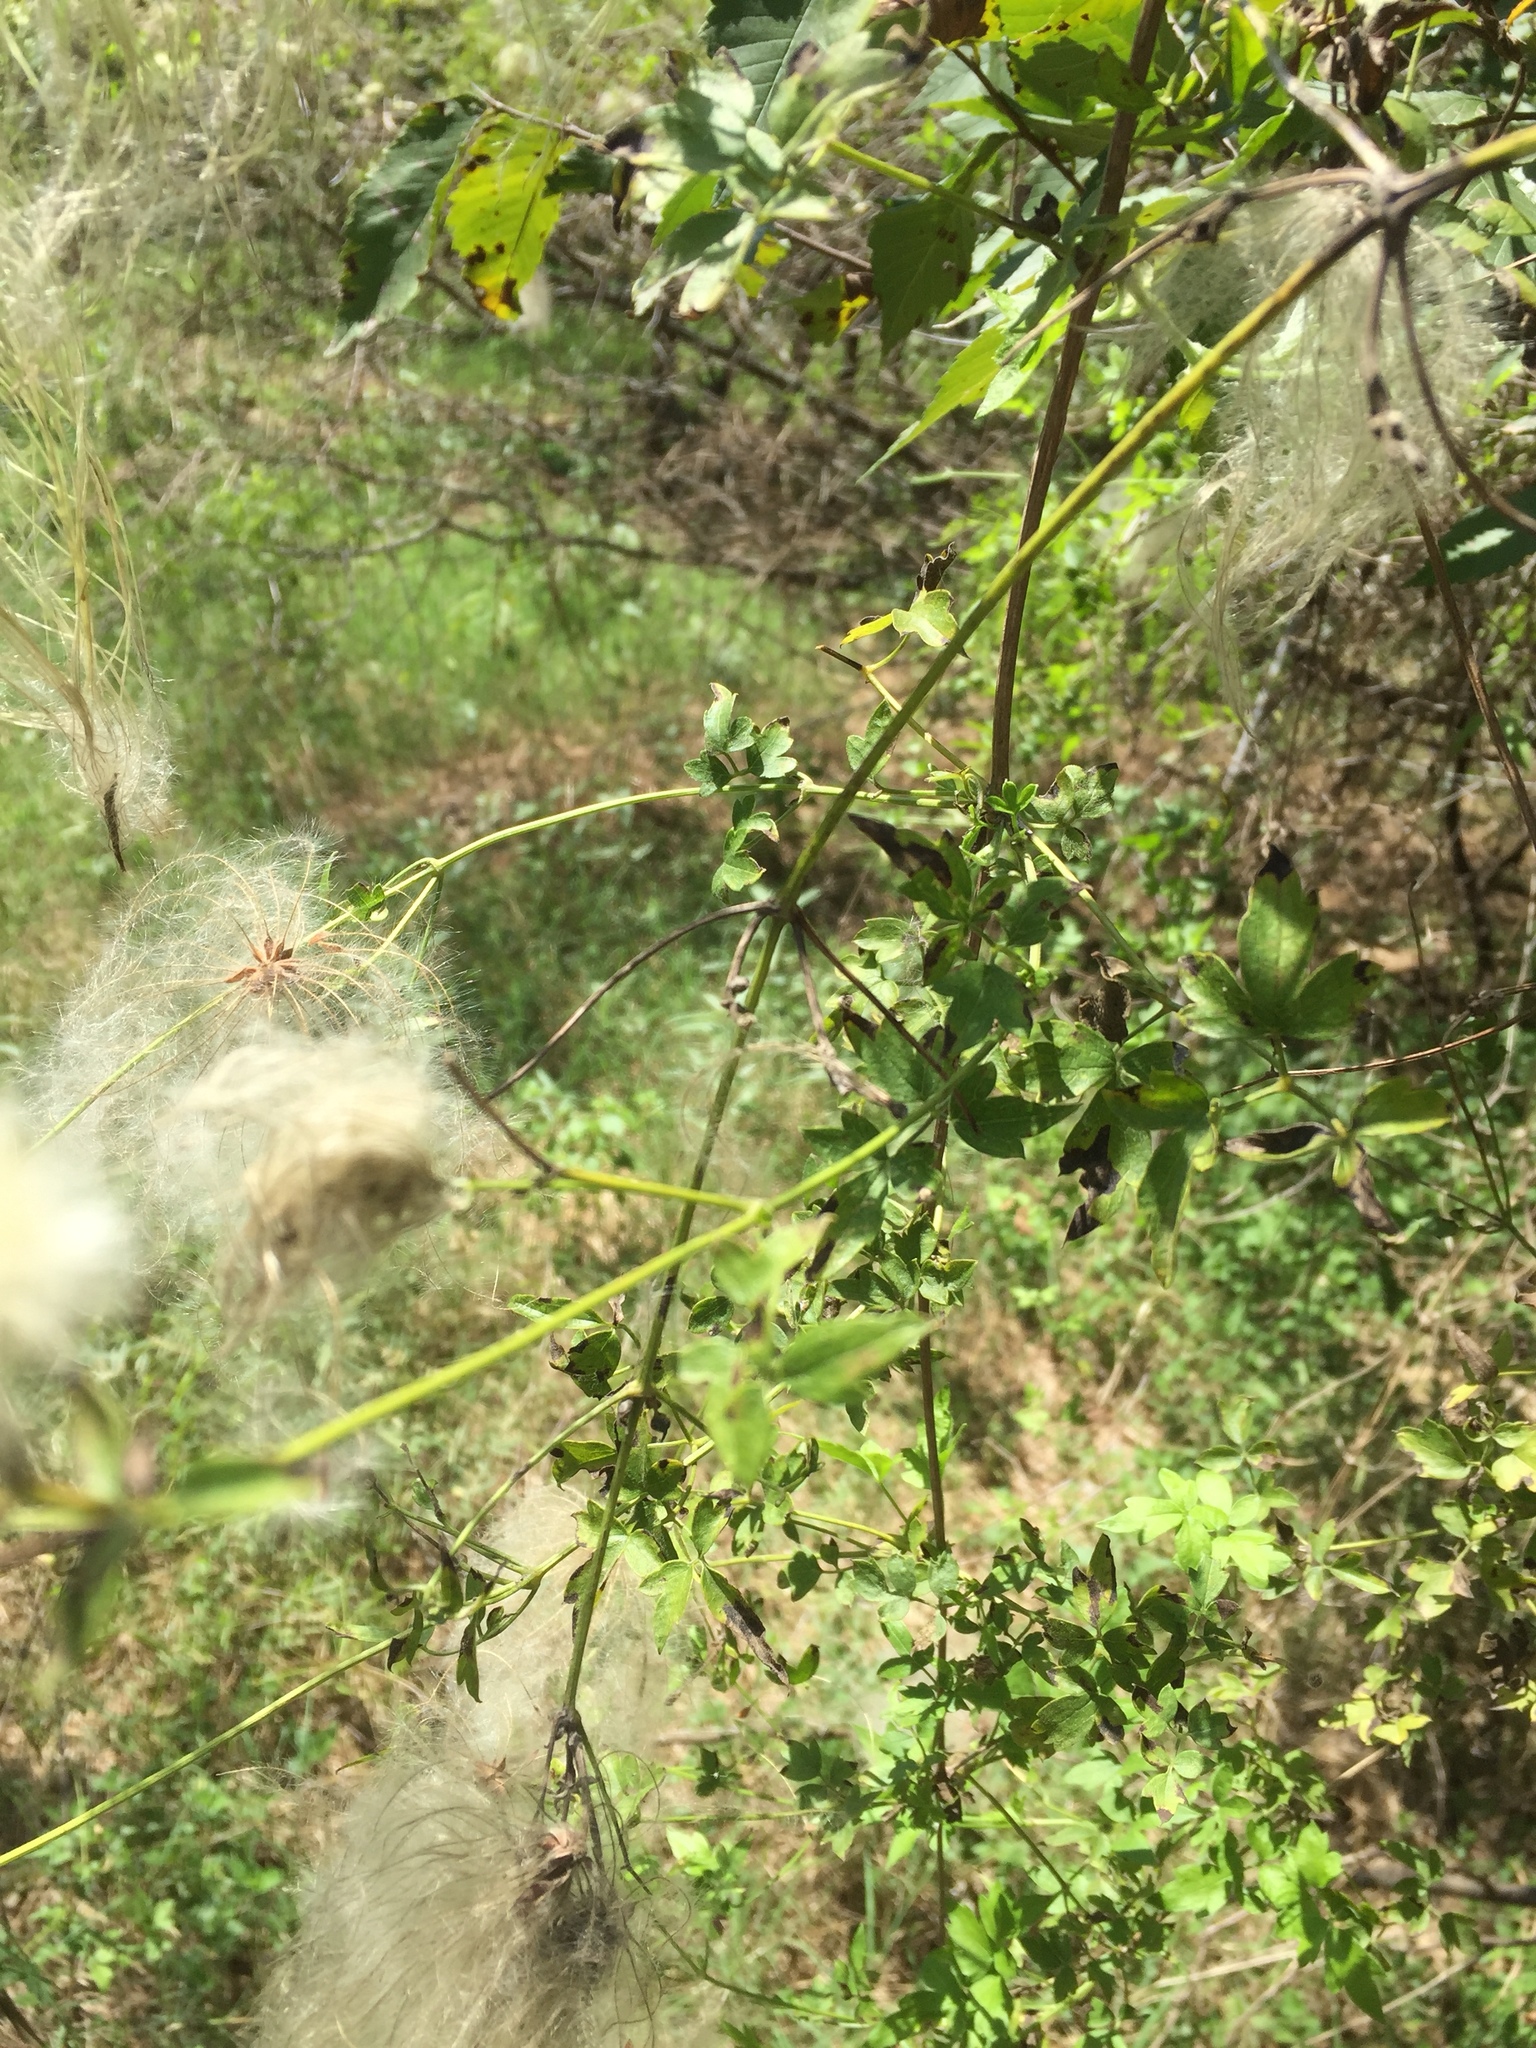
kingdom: Plantae
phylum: Tracheophyta
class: Magnoliopsida
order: Ranunculales
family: Ranunculaceae
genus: Clematis
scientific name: Clematis drummondii
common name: Texas virgin's bower
